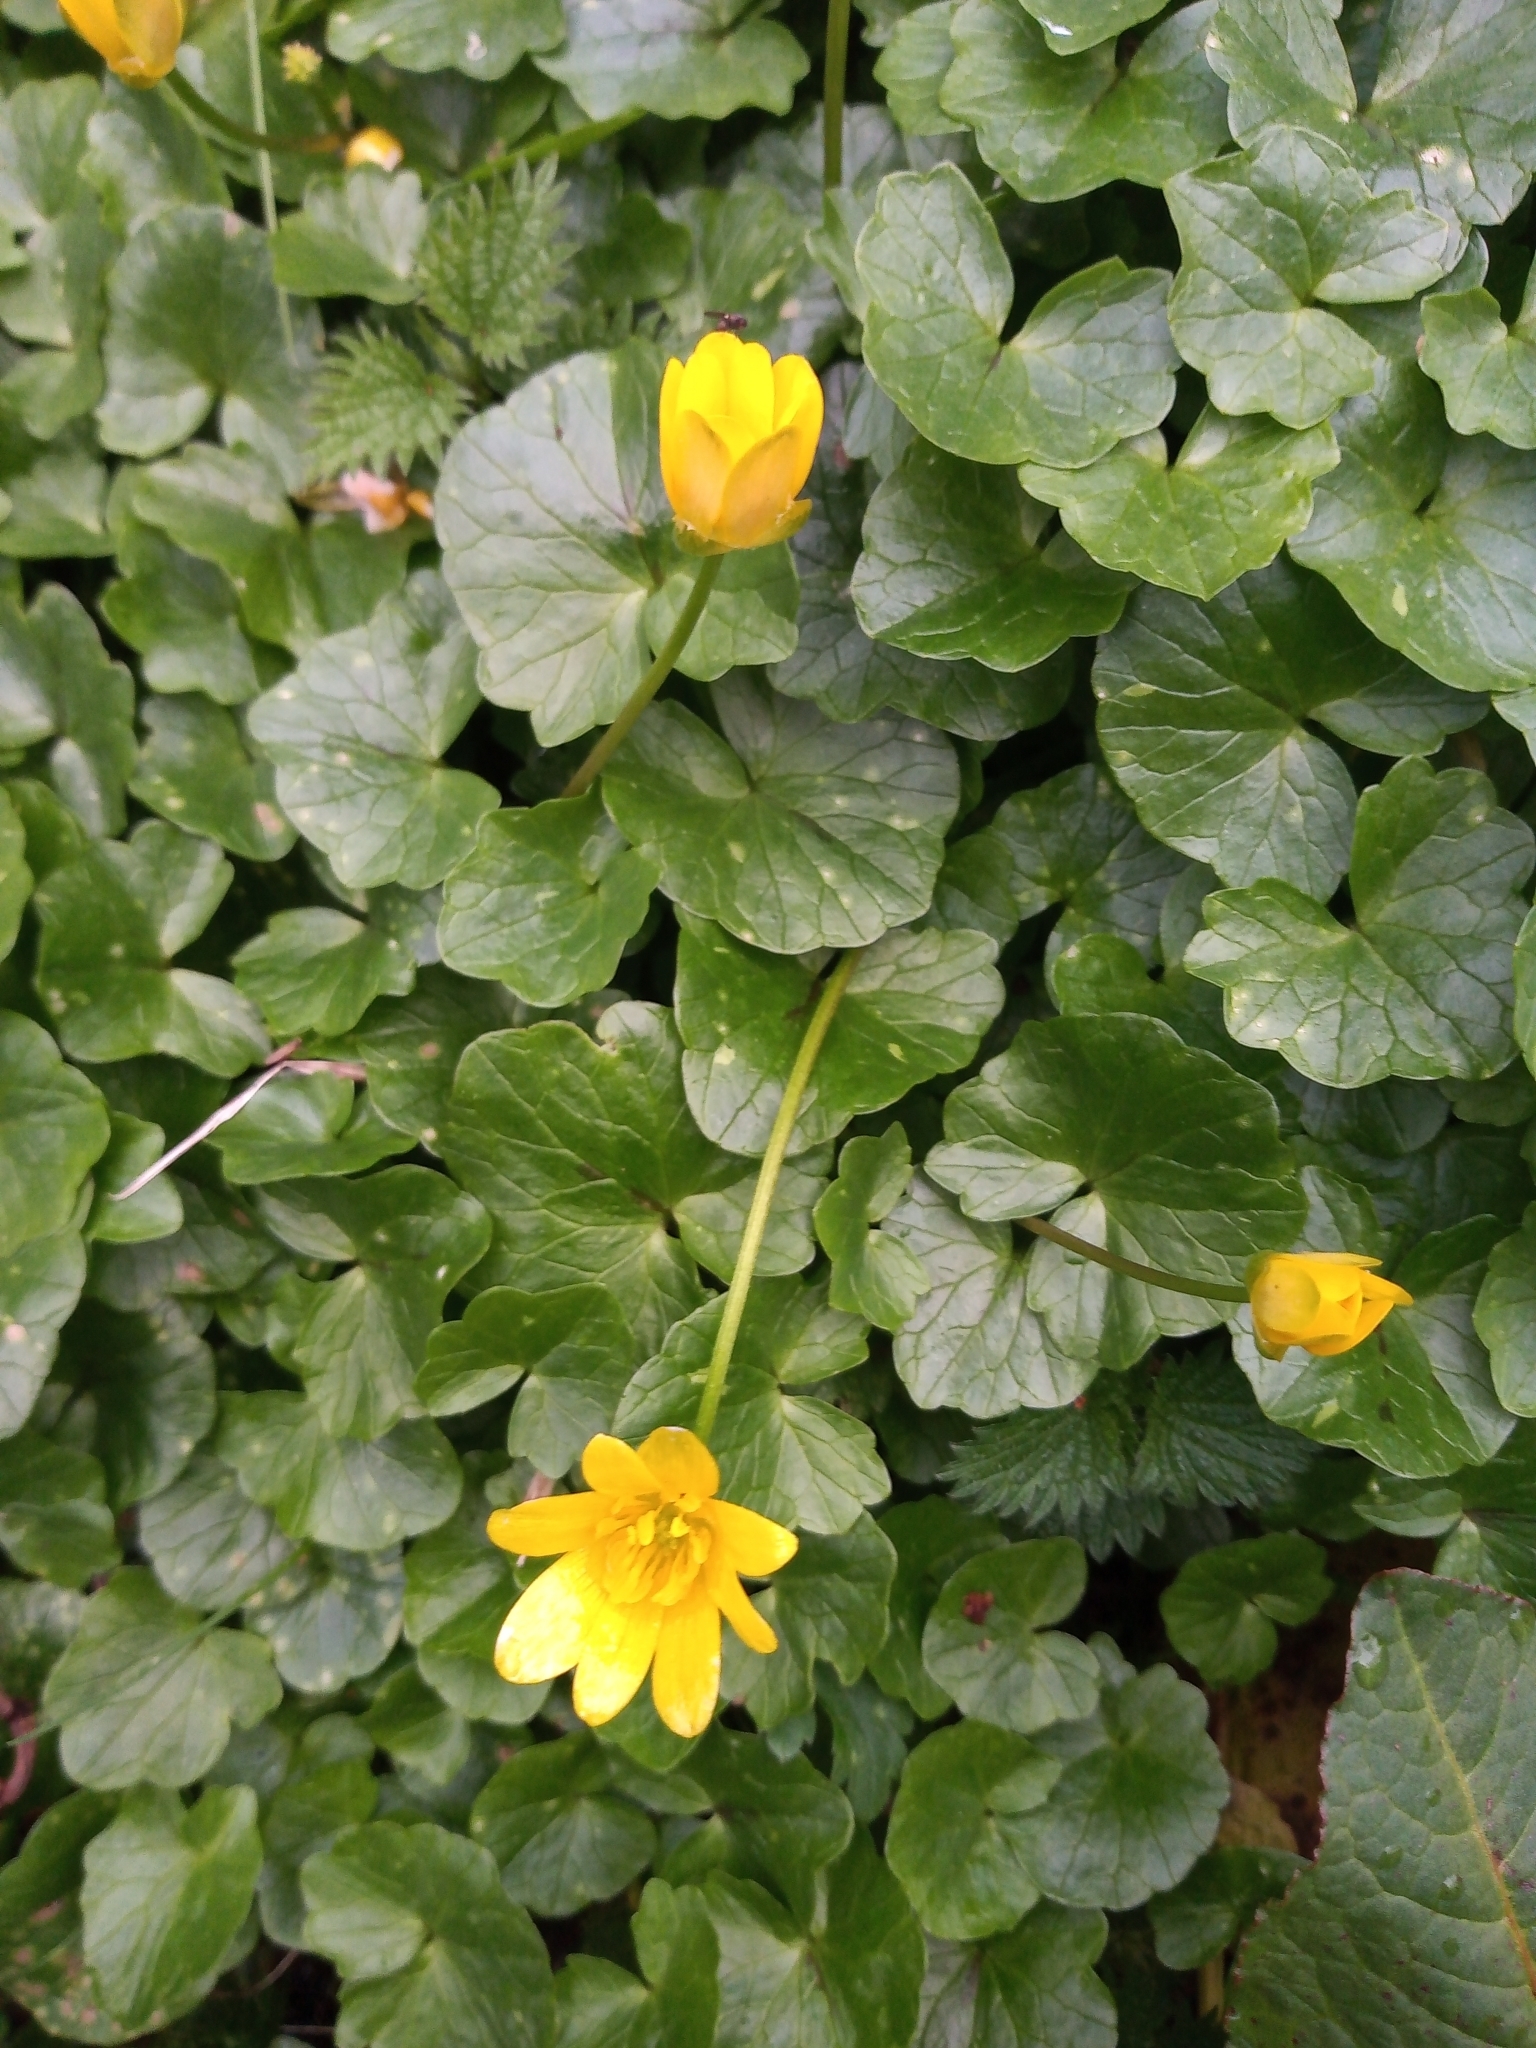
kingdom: Plantae
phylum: Tracheophyta
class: Magnoliopsida
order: Ranunculales
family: Ranunculaceae
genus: Ficaria
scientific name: Ficaria verna
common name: Lesser celandine
